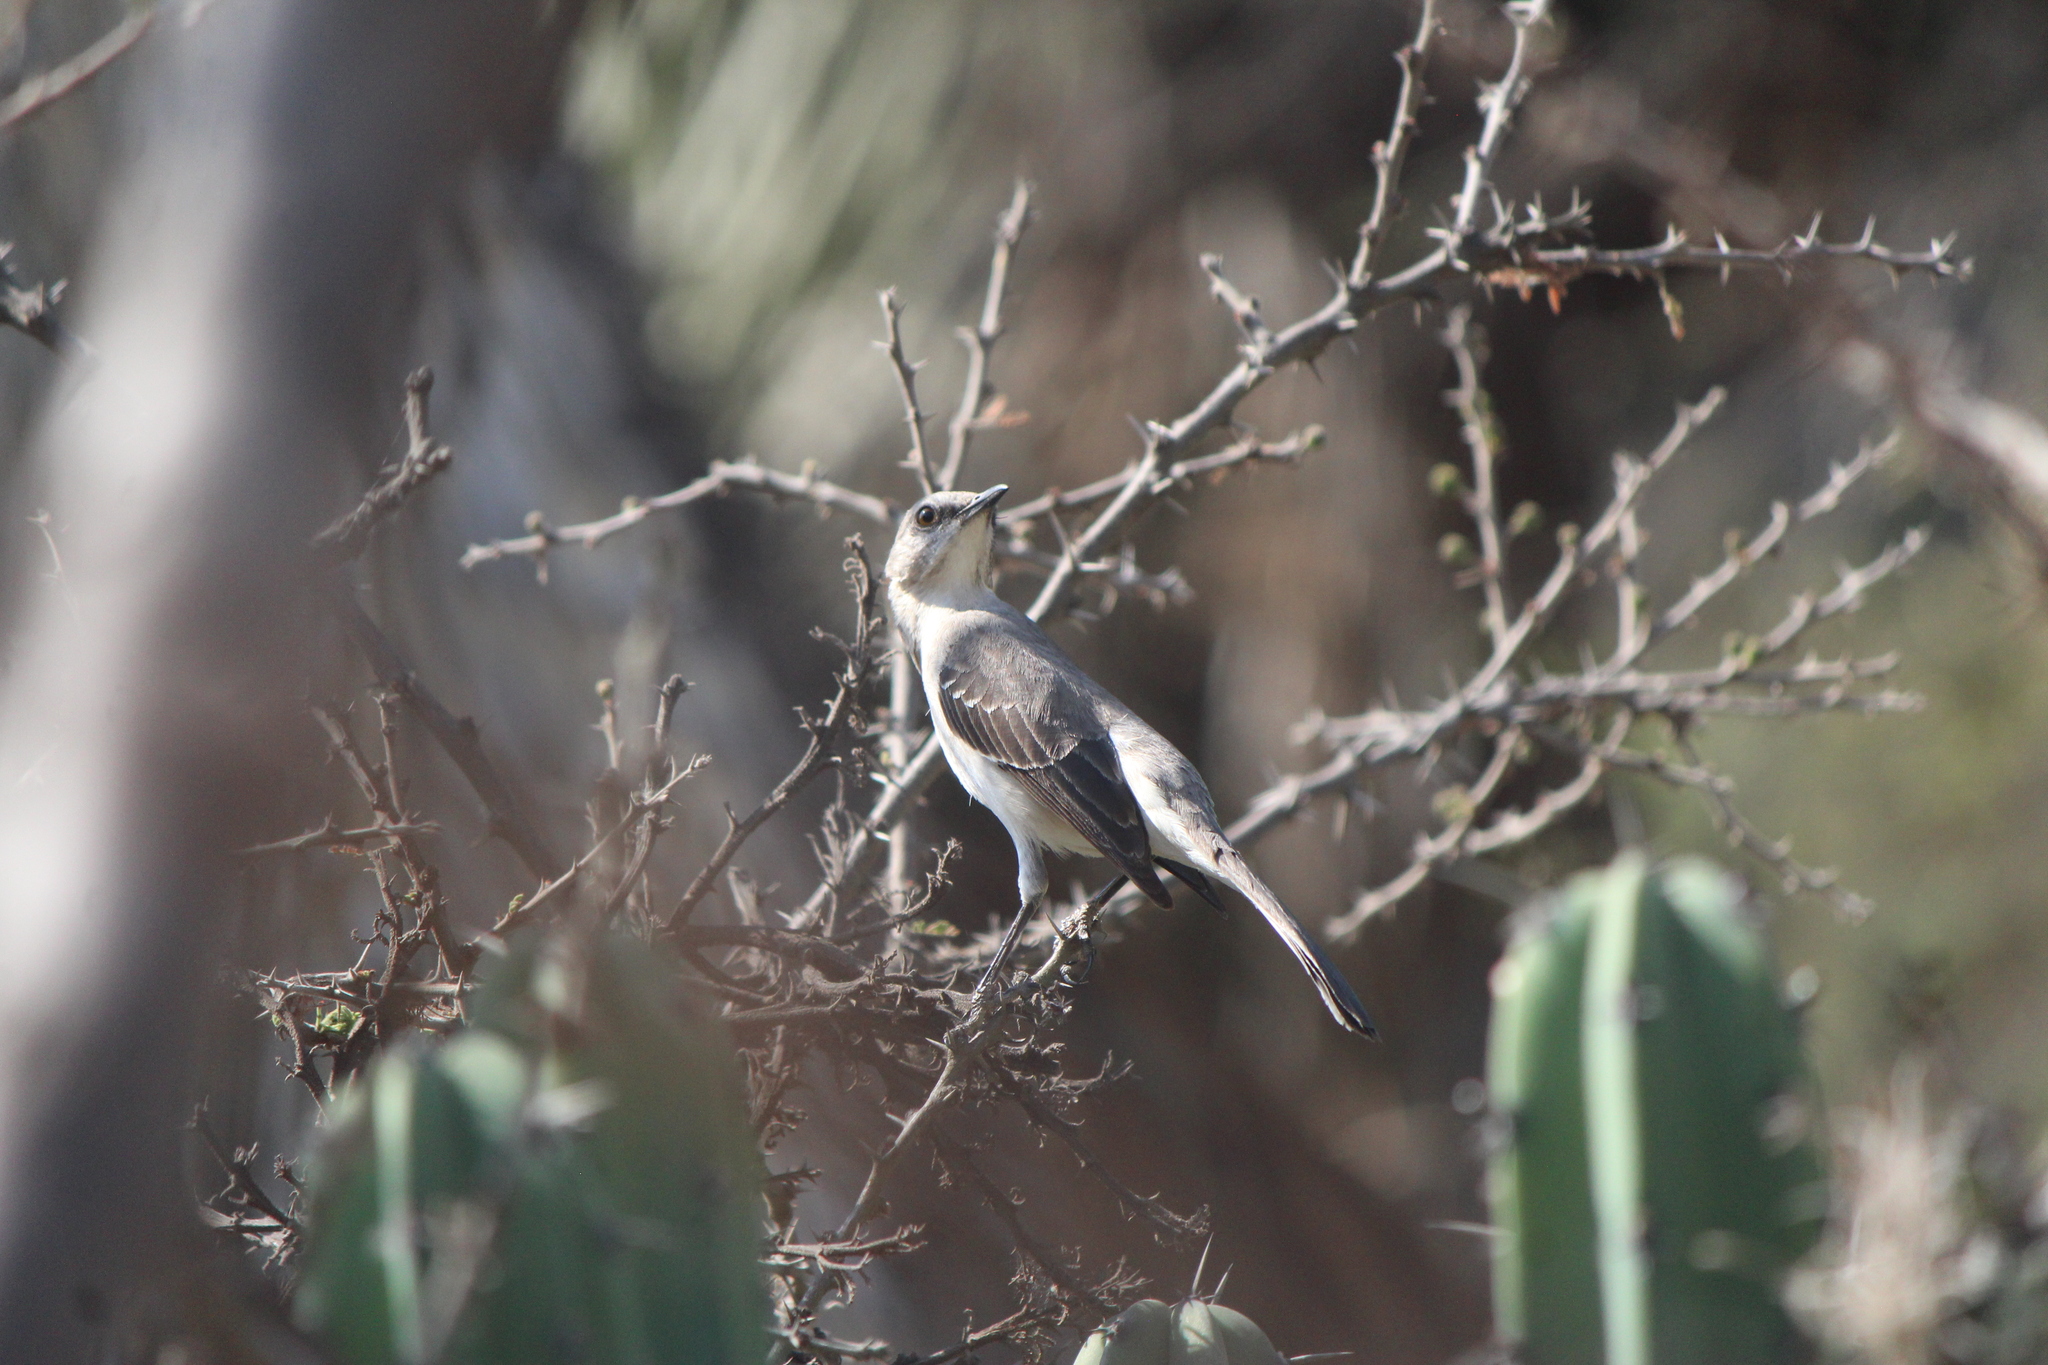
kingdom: Animalia
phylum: Chordata
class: Aves
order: Passeriformes
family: Mimidae
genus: Mimus
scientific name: Mimus polyglottos
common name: Northern mockingbird
